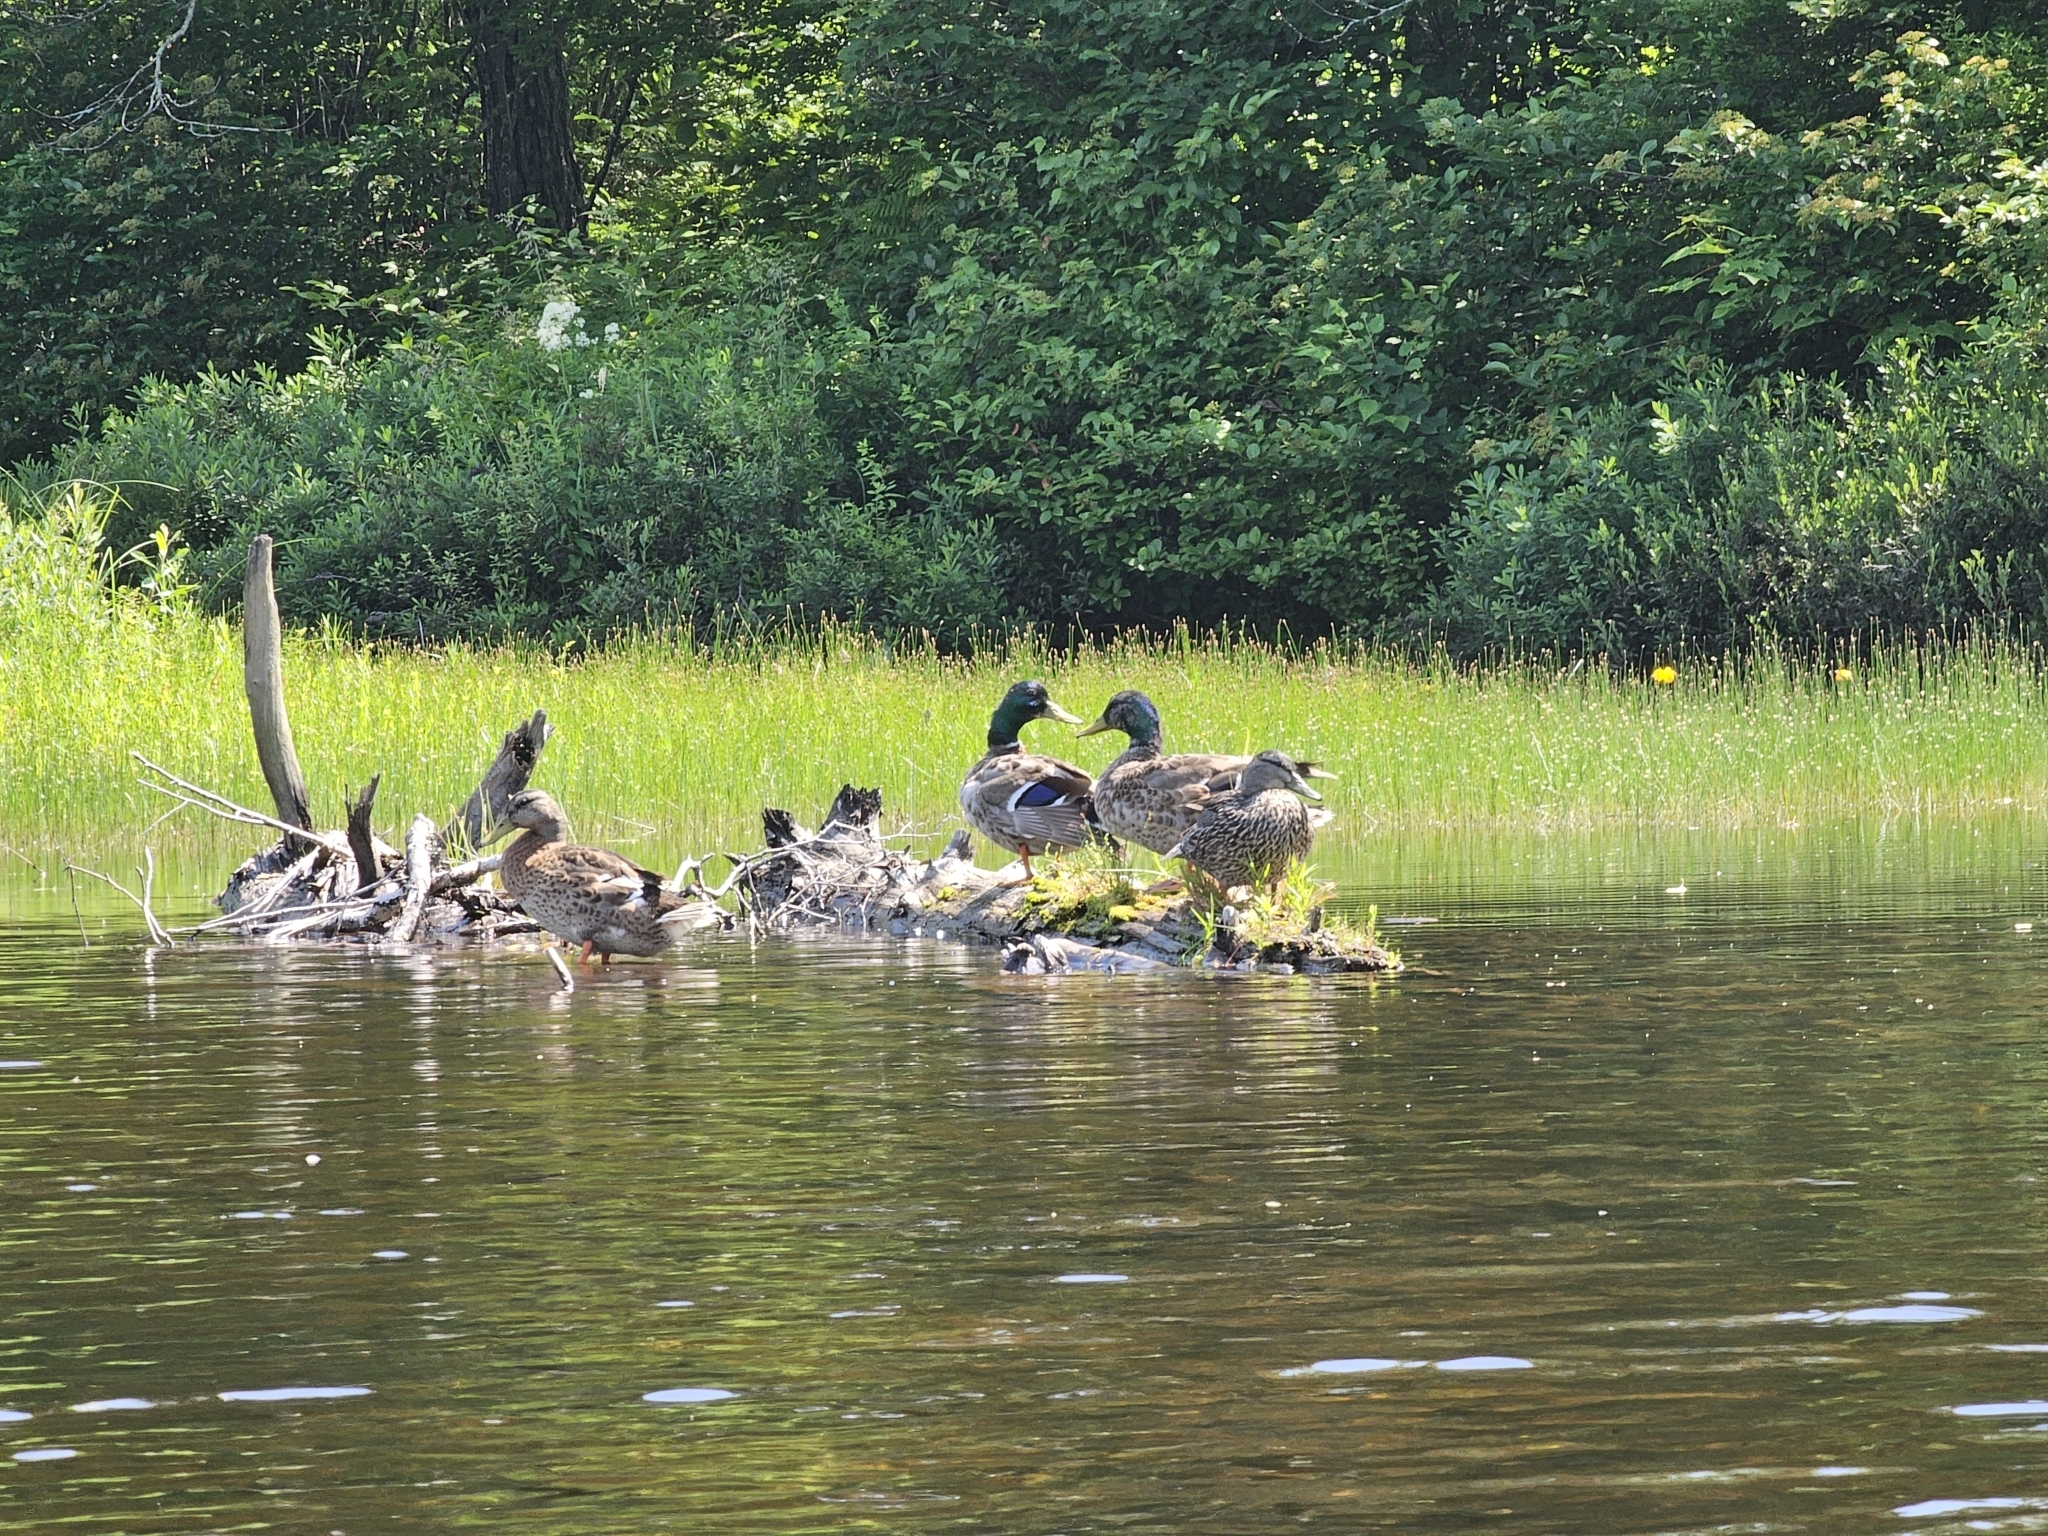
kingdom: Animalia
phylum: Chordata
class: Aves
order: Anseriformes
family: Anatidae
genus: Anas
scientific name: Anas platyrhynchos
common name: Mallard
